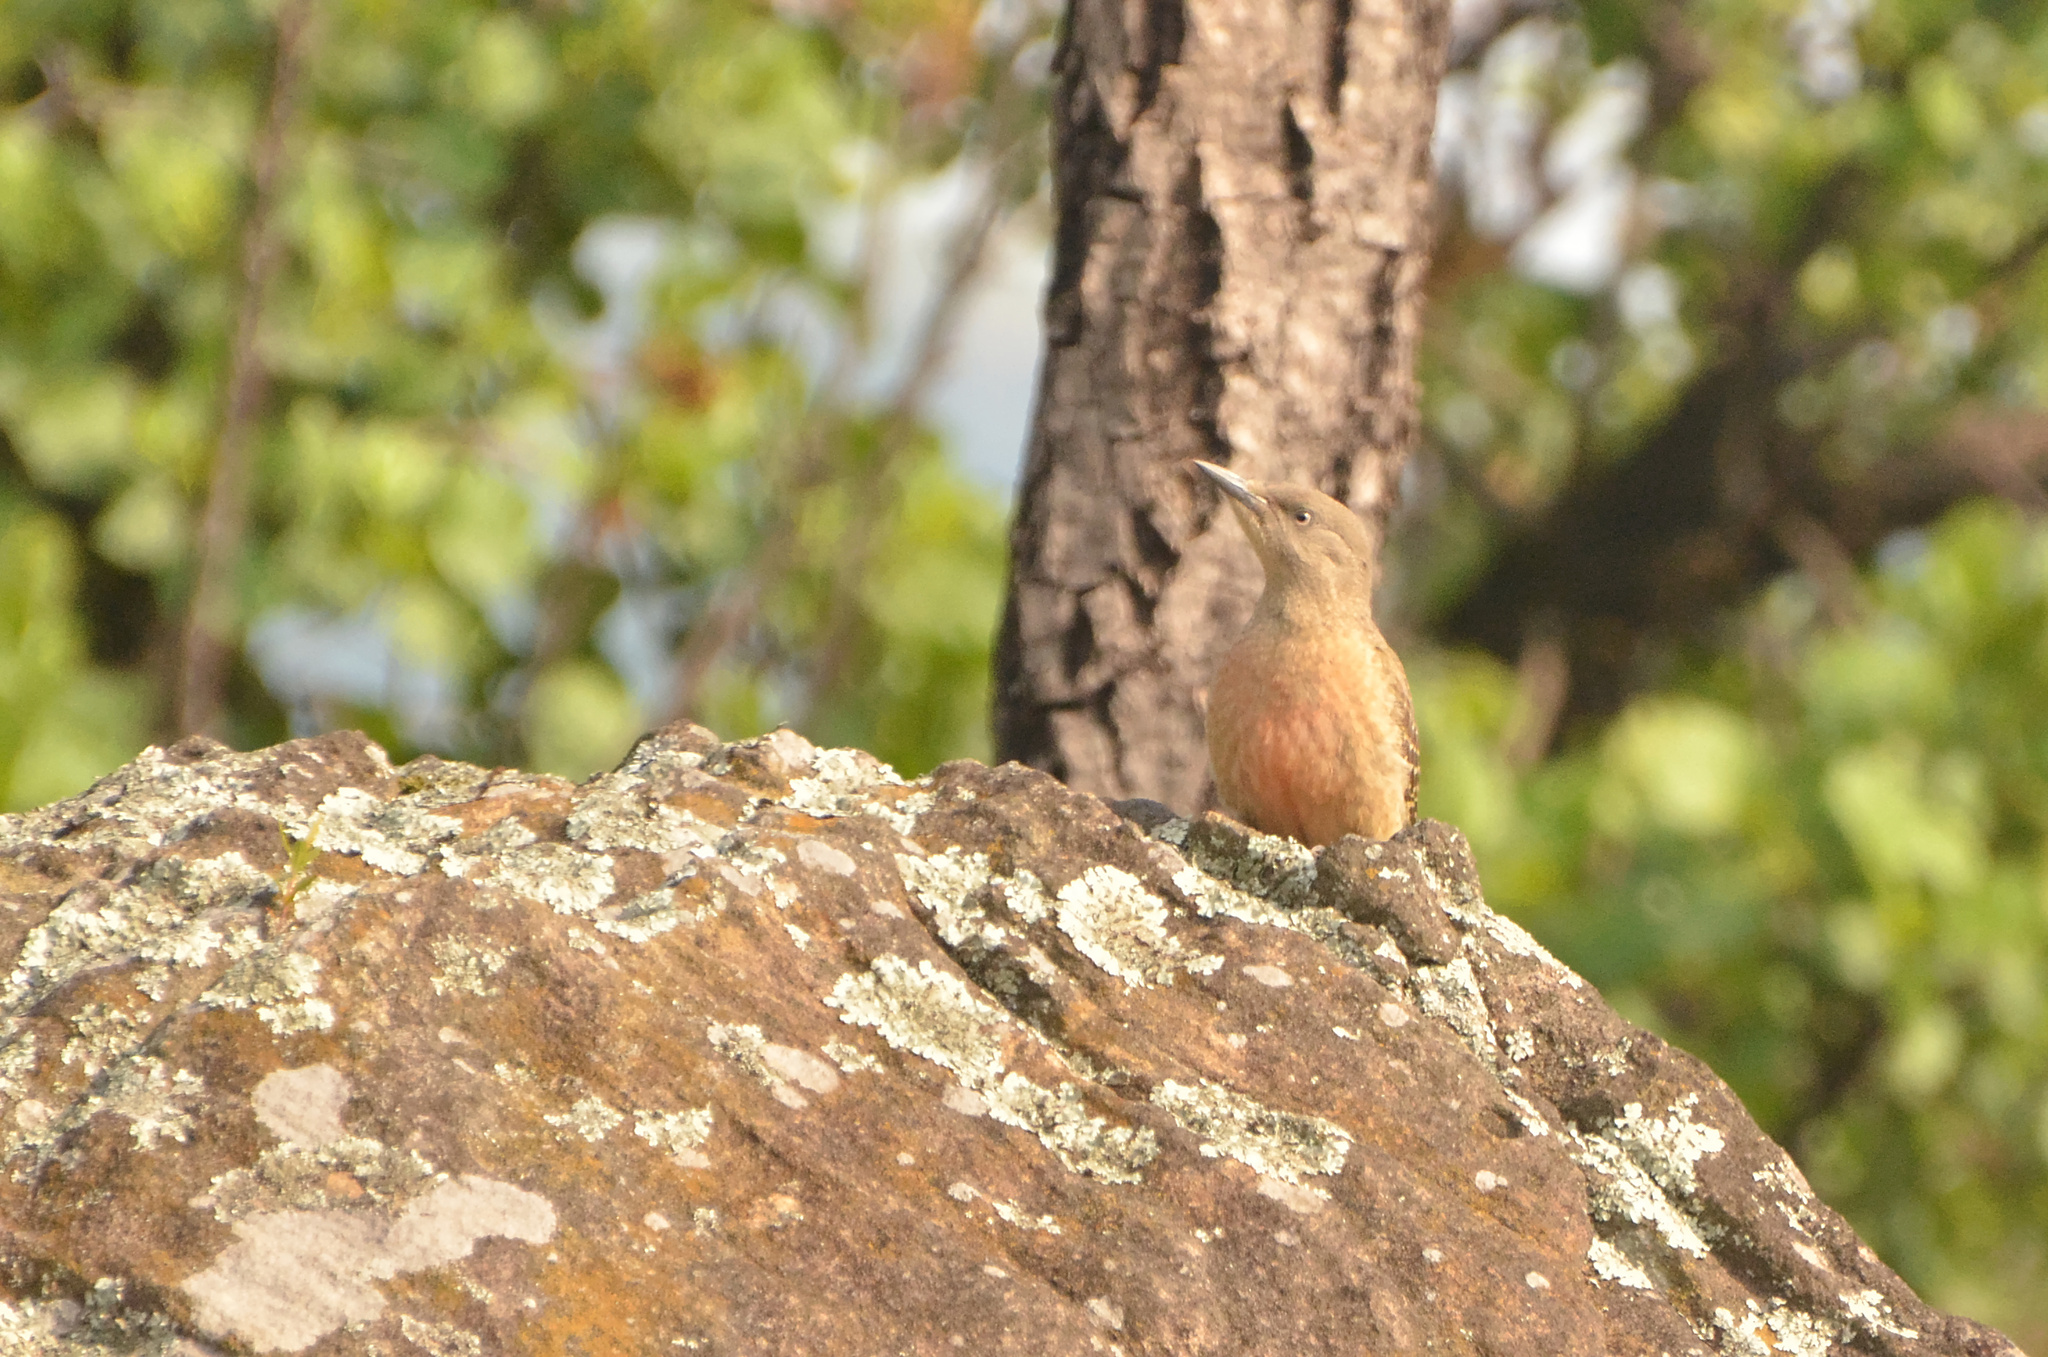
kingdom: Animalia
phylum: Chordata
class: Aves
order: Piciformes
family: Picidae
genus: Geocolaptes
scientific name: Geocolaptes olivaceus
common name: Ground woodpecker
